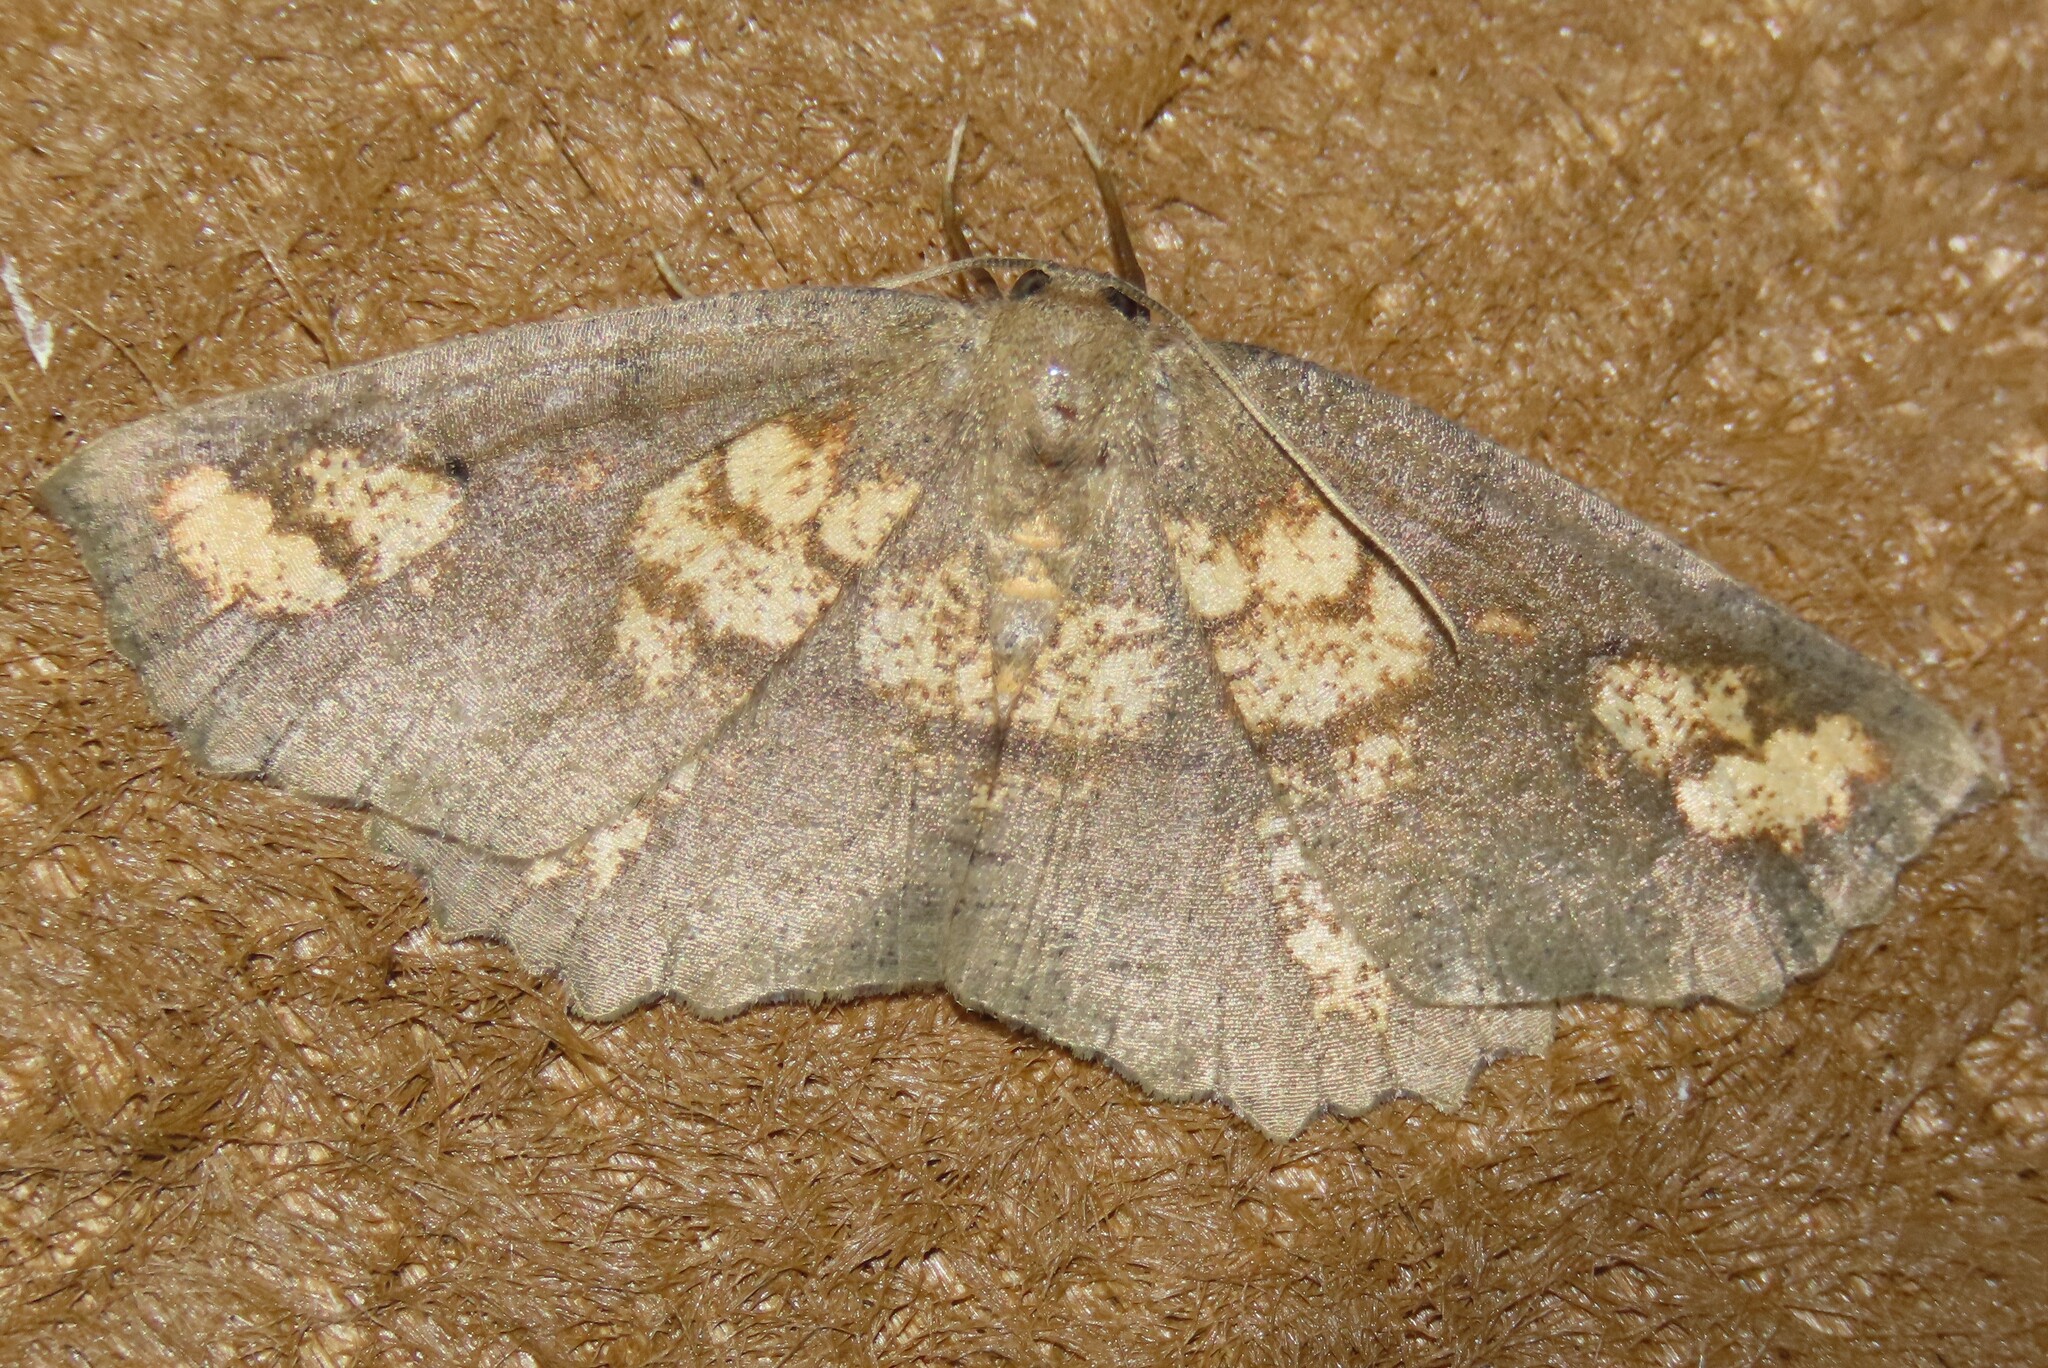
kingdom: Animalia
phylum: Arthropoda
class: Insecta
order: Lepidoptera
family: Geometridae
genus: Xyridacma
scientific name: Xyridacma ustaria
